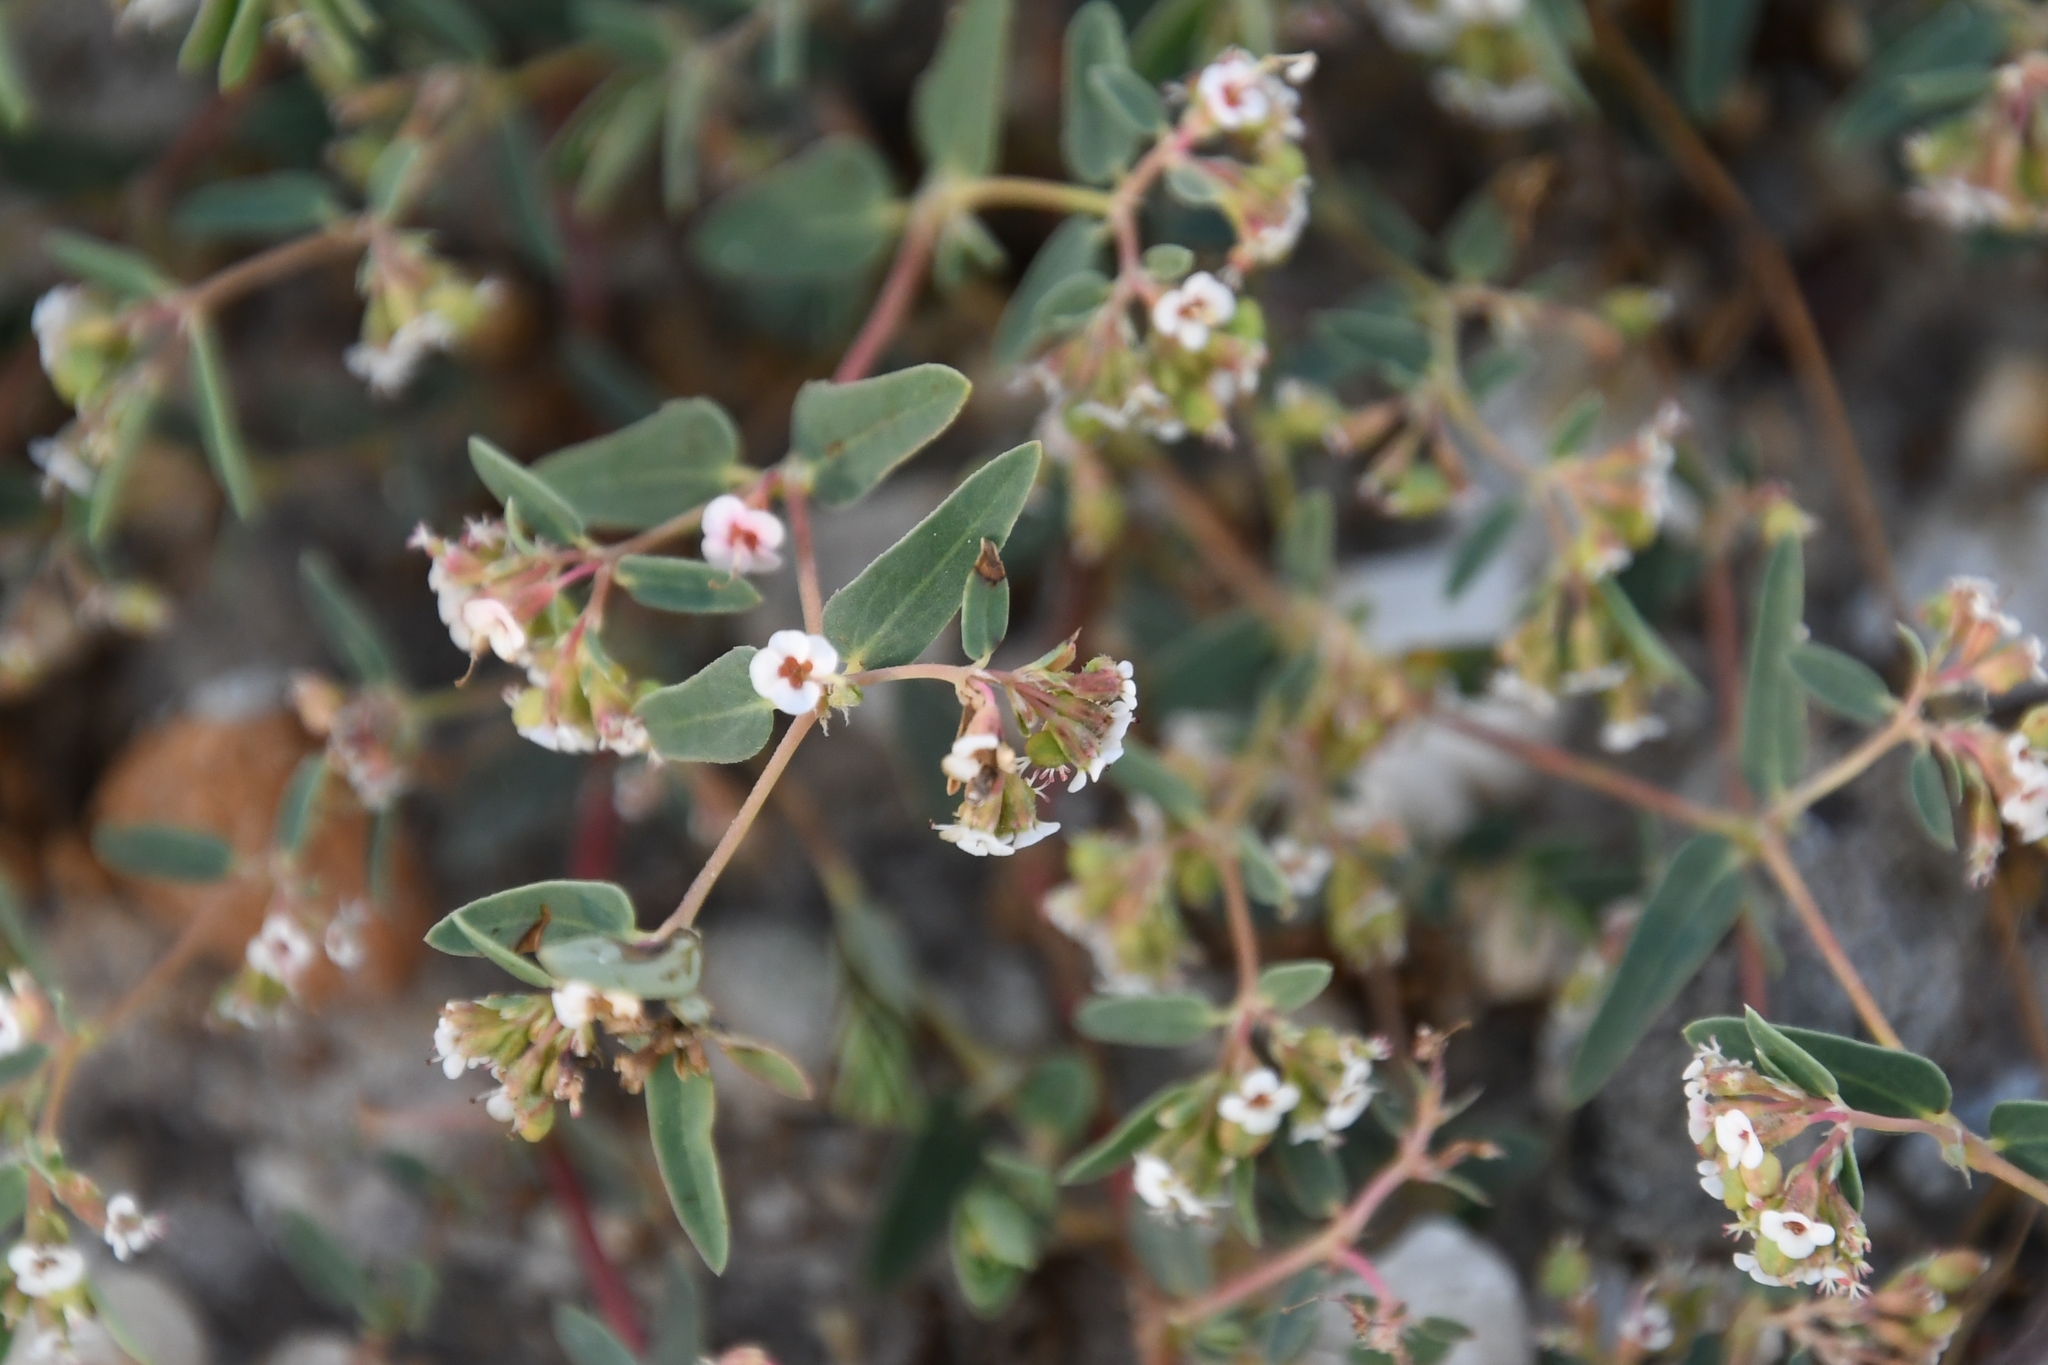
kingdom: Plantae
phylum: Tracheophyta
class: Magnoliopsida
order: Malpighiales
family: Euphorbiaceae
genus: Euphorbia
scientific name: Euphorbia capitellata
